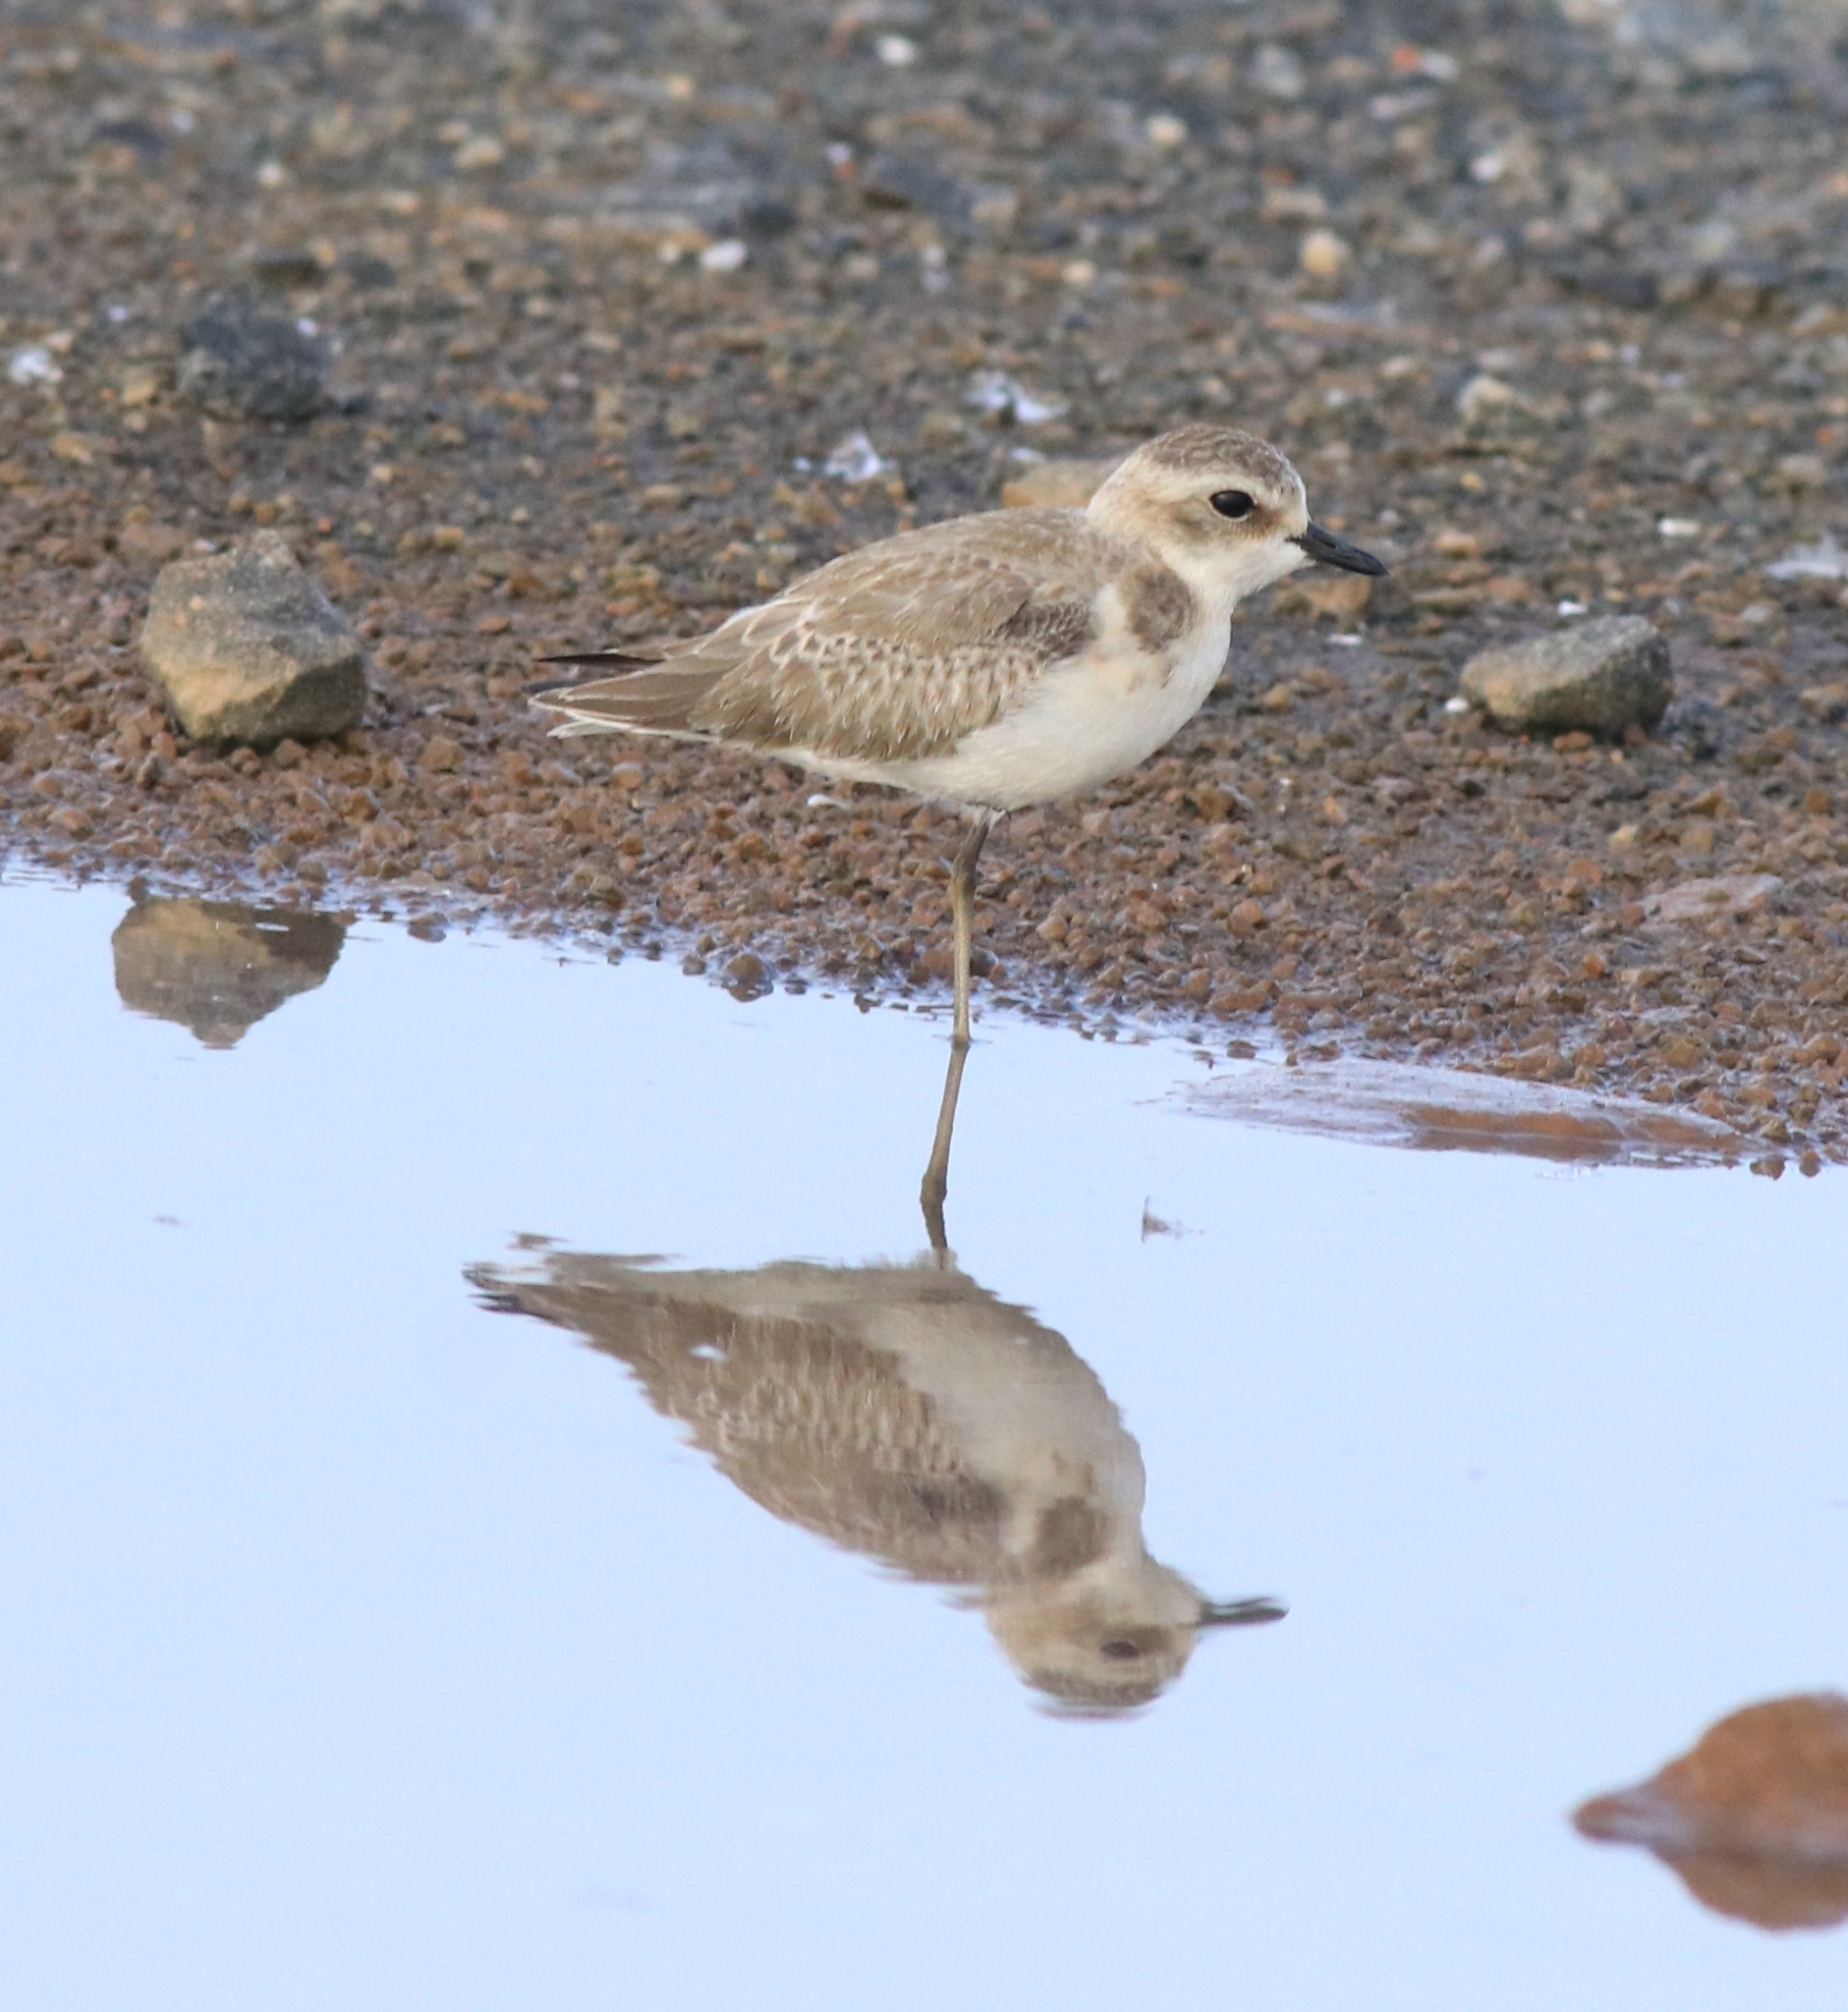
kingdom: Animalia
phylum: Chordata
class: Aves
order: Charadriiformes
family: Charadriidae
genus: Anarhynchus
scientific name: Anarhynchus
